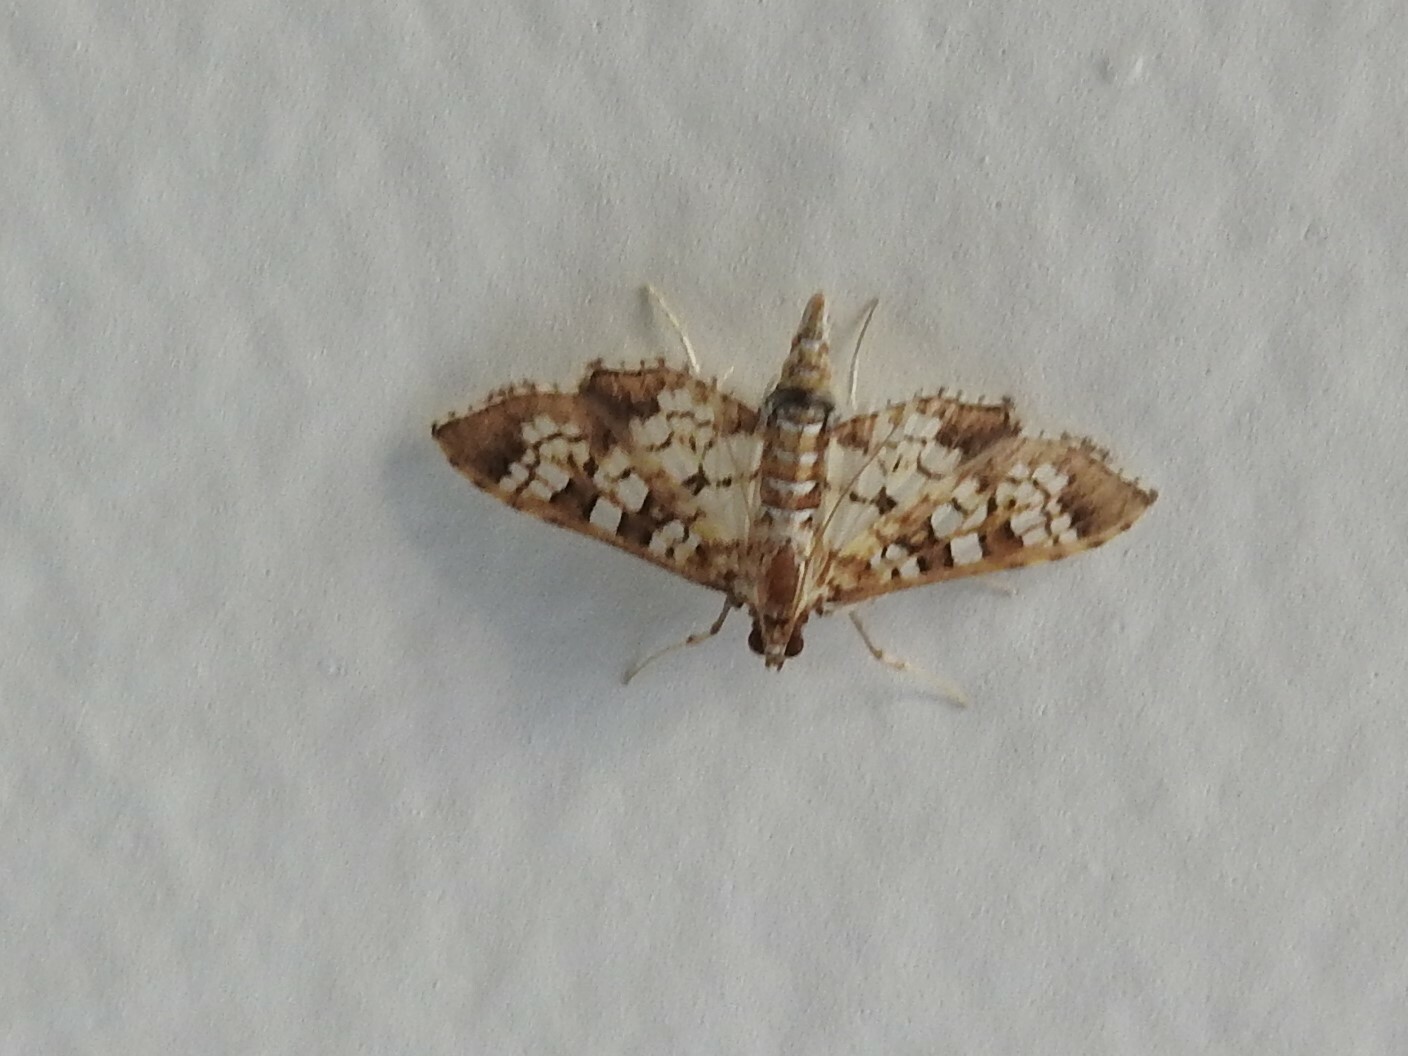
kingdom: Animalia
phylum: Arthropoda
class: Insecta
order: Lepidoptera
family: Crambidae
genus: Samea
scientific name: Samea ecclesialis
